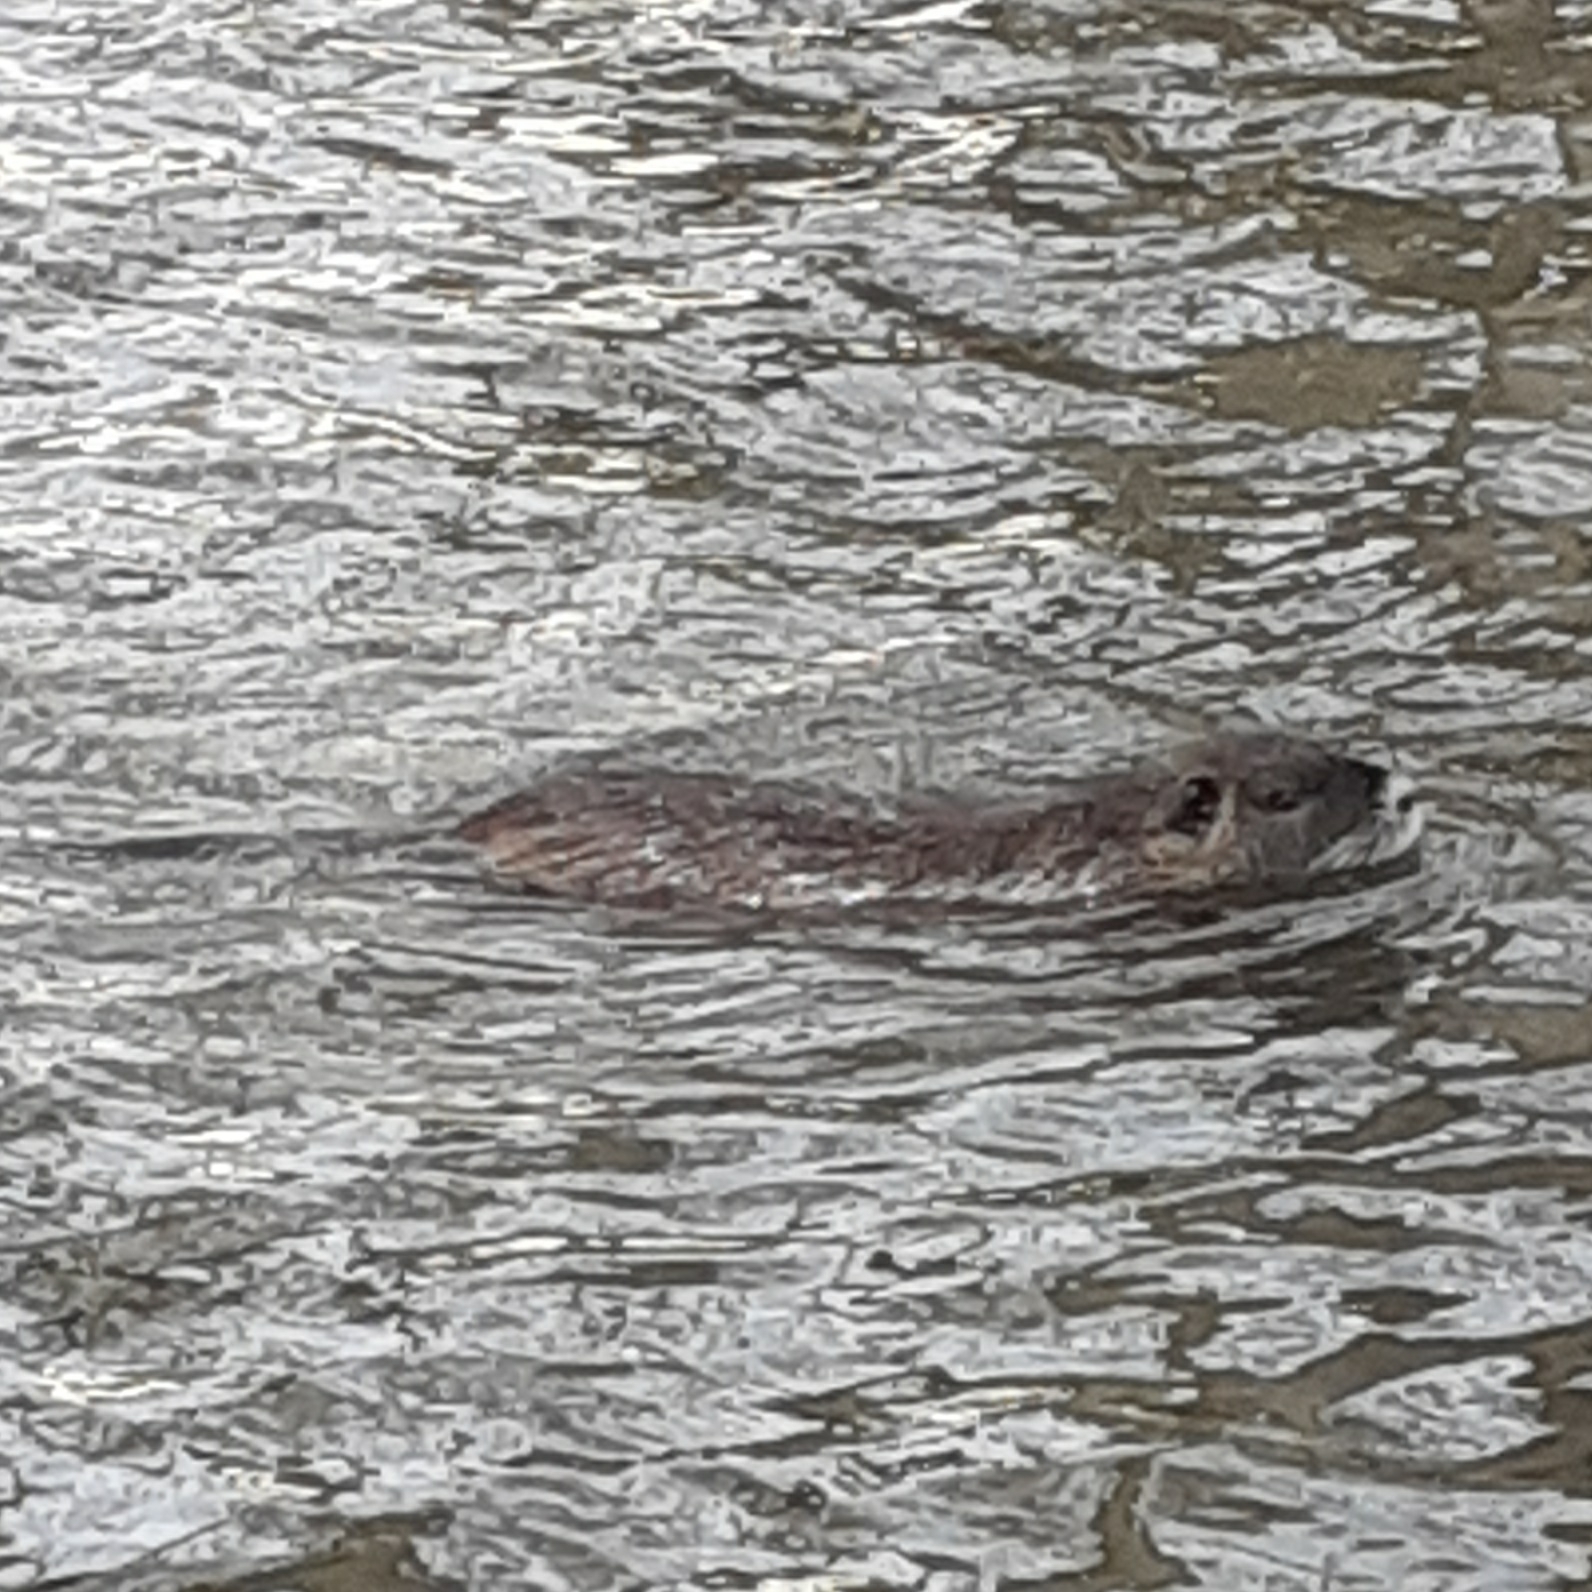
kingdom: Animalia
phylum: Chordata
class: Mammalia
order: Rodentia
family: Myocastoridae
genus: Myocastor
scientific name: Myocastor coypus
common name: Coypu
